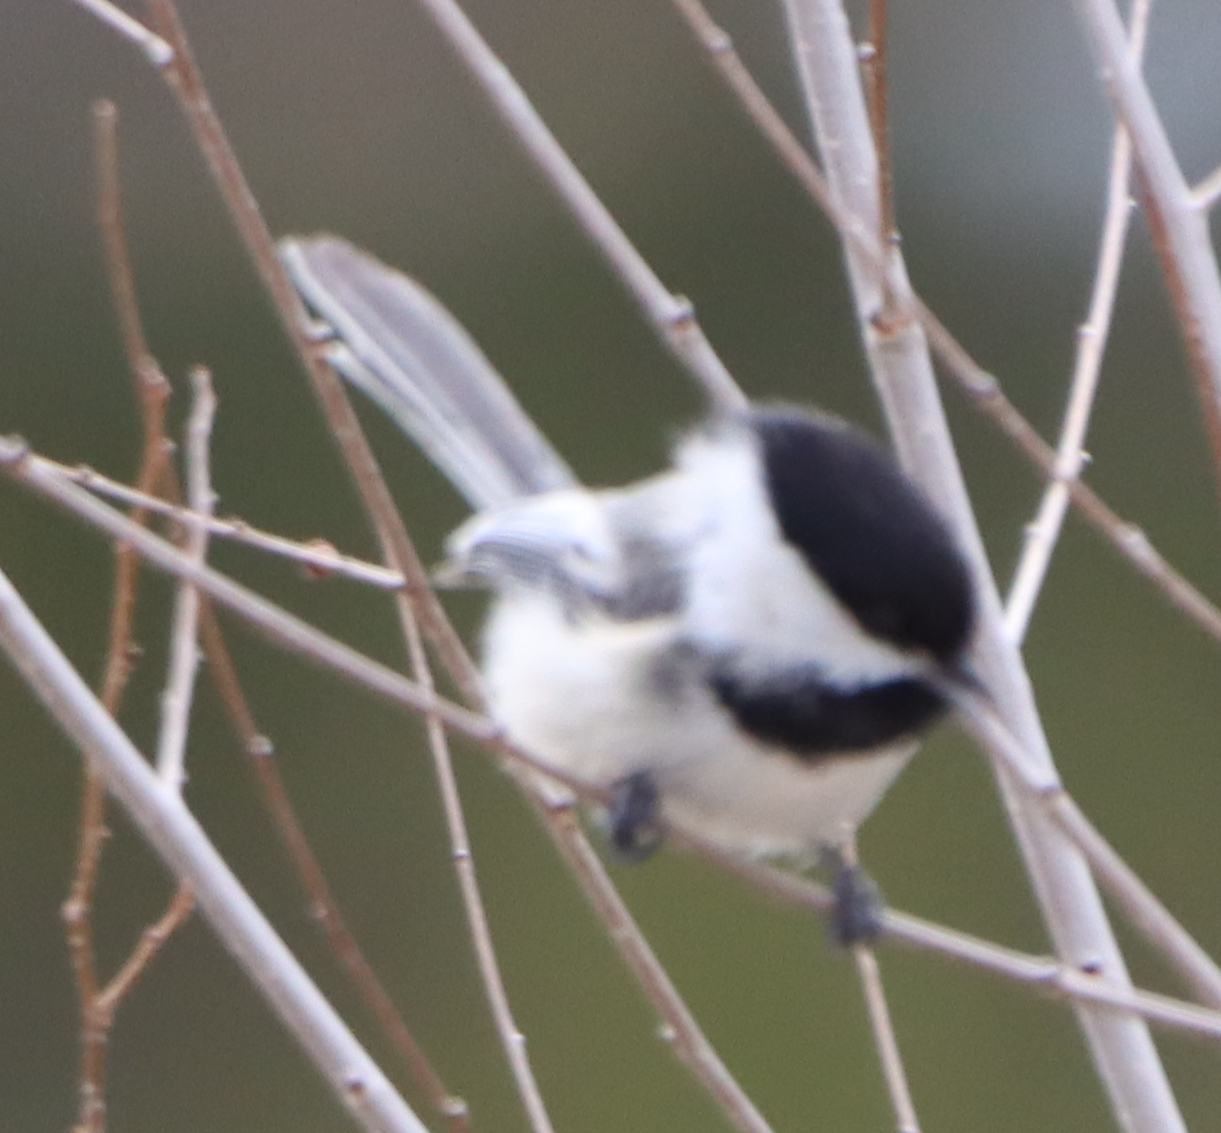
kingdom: Animalia
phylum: Chordata
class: Aves
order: Passeriformes
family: Paridae
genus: Poecile
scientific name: Poecile atricapillus
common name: Black-capped chickadee
